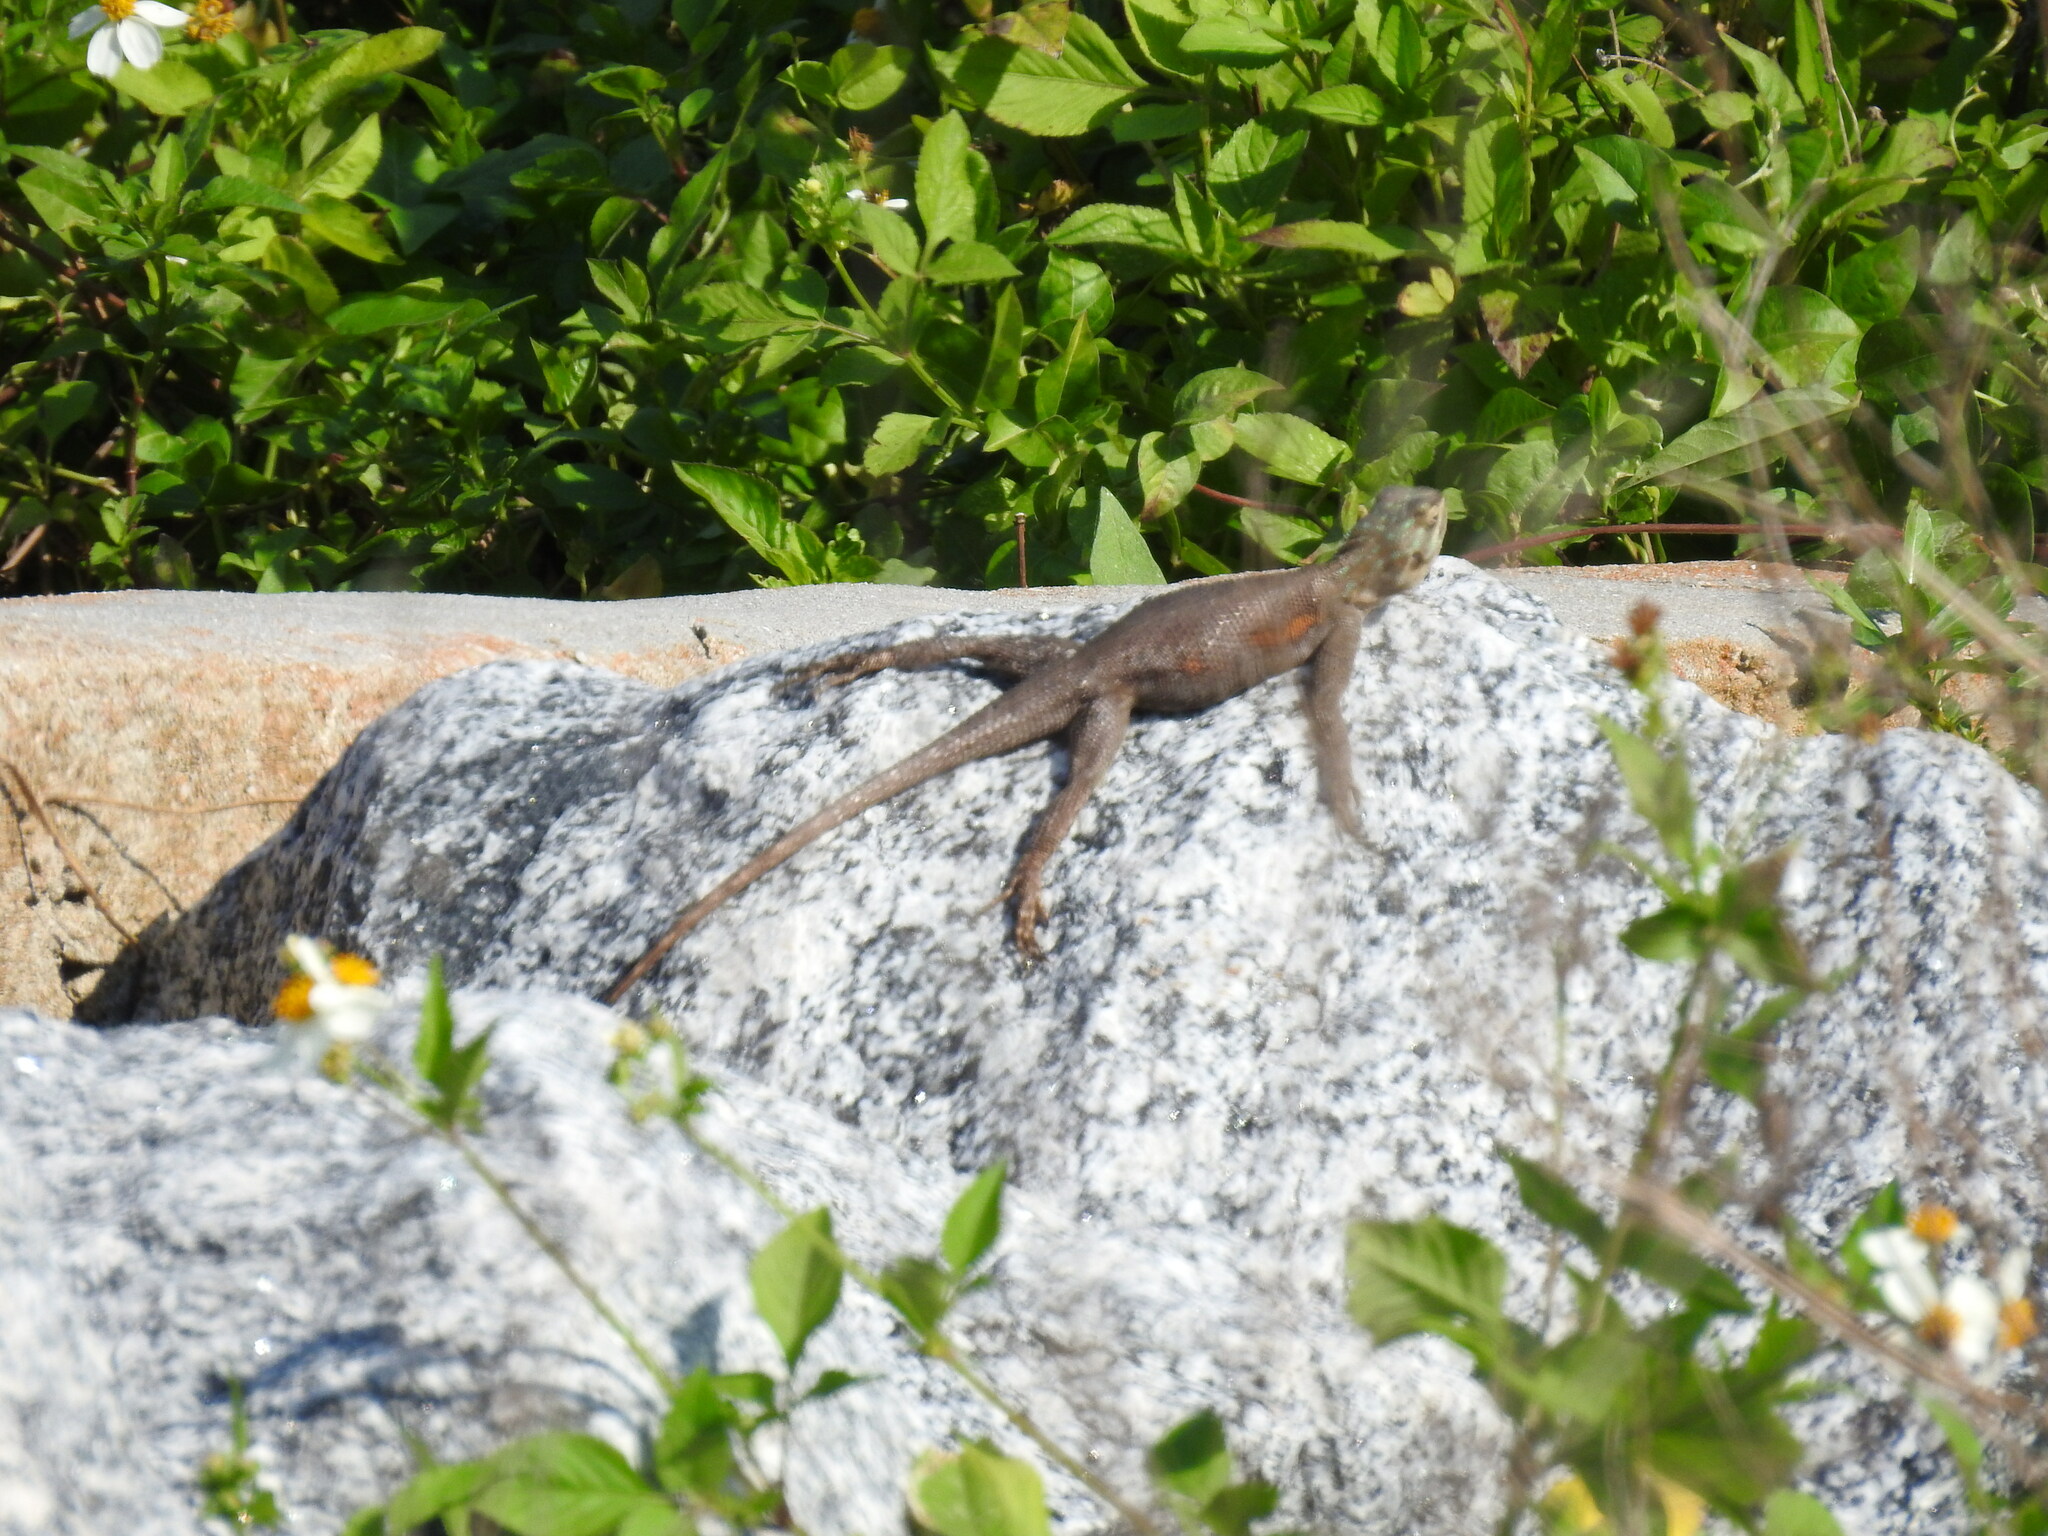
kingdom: Animalia
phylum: Chordata
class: Squamata
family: Agamidae
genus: Agama
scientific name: Agama picticauda
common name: Red-headed agama
